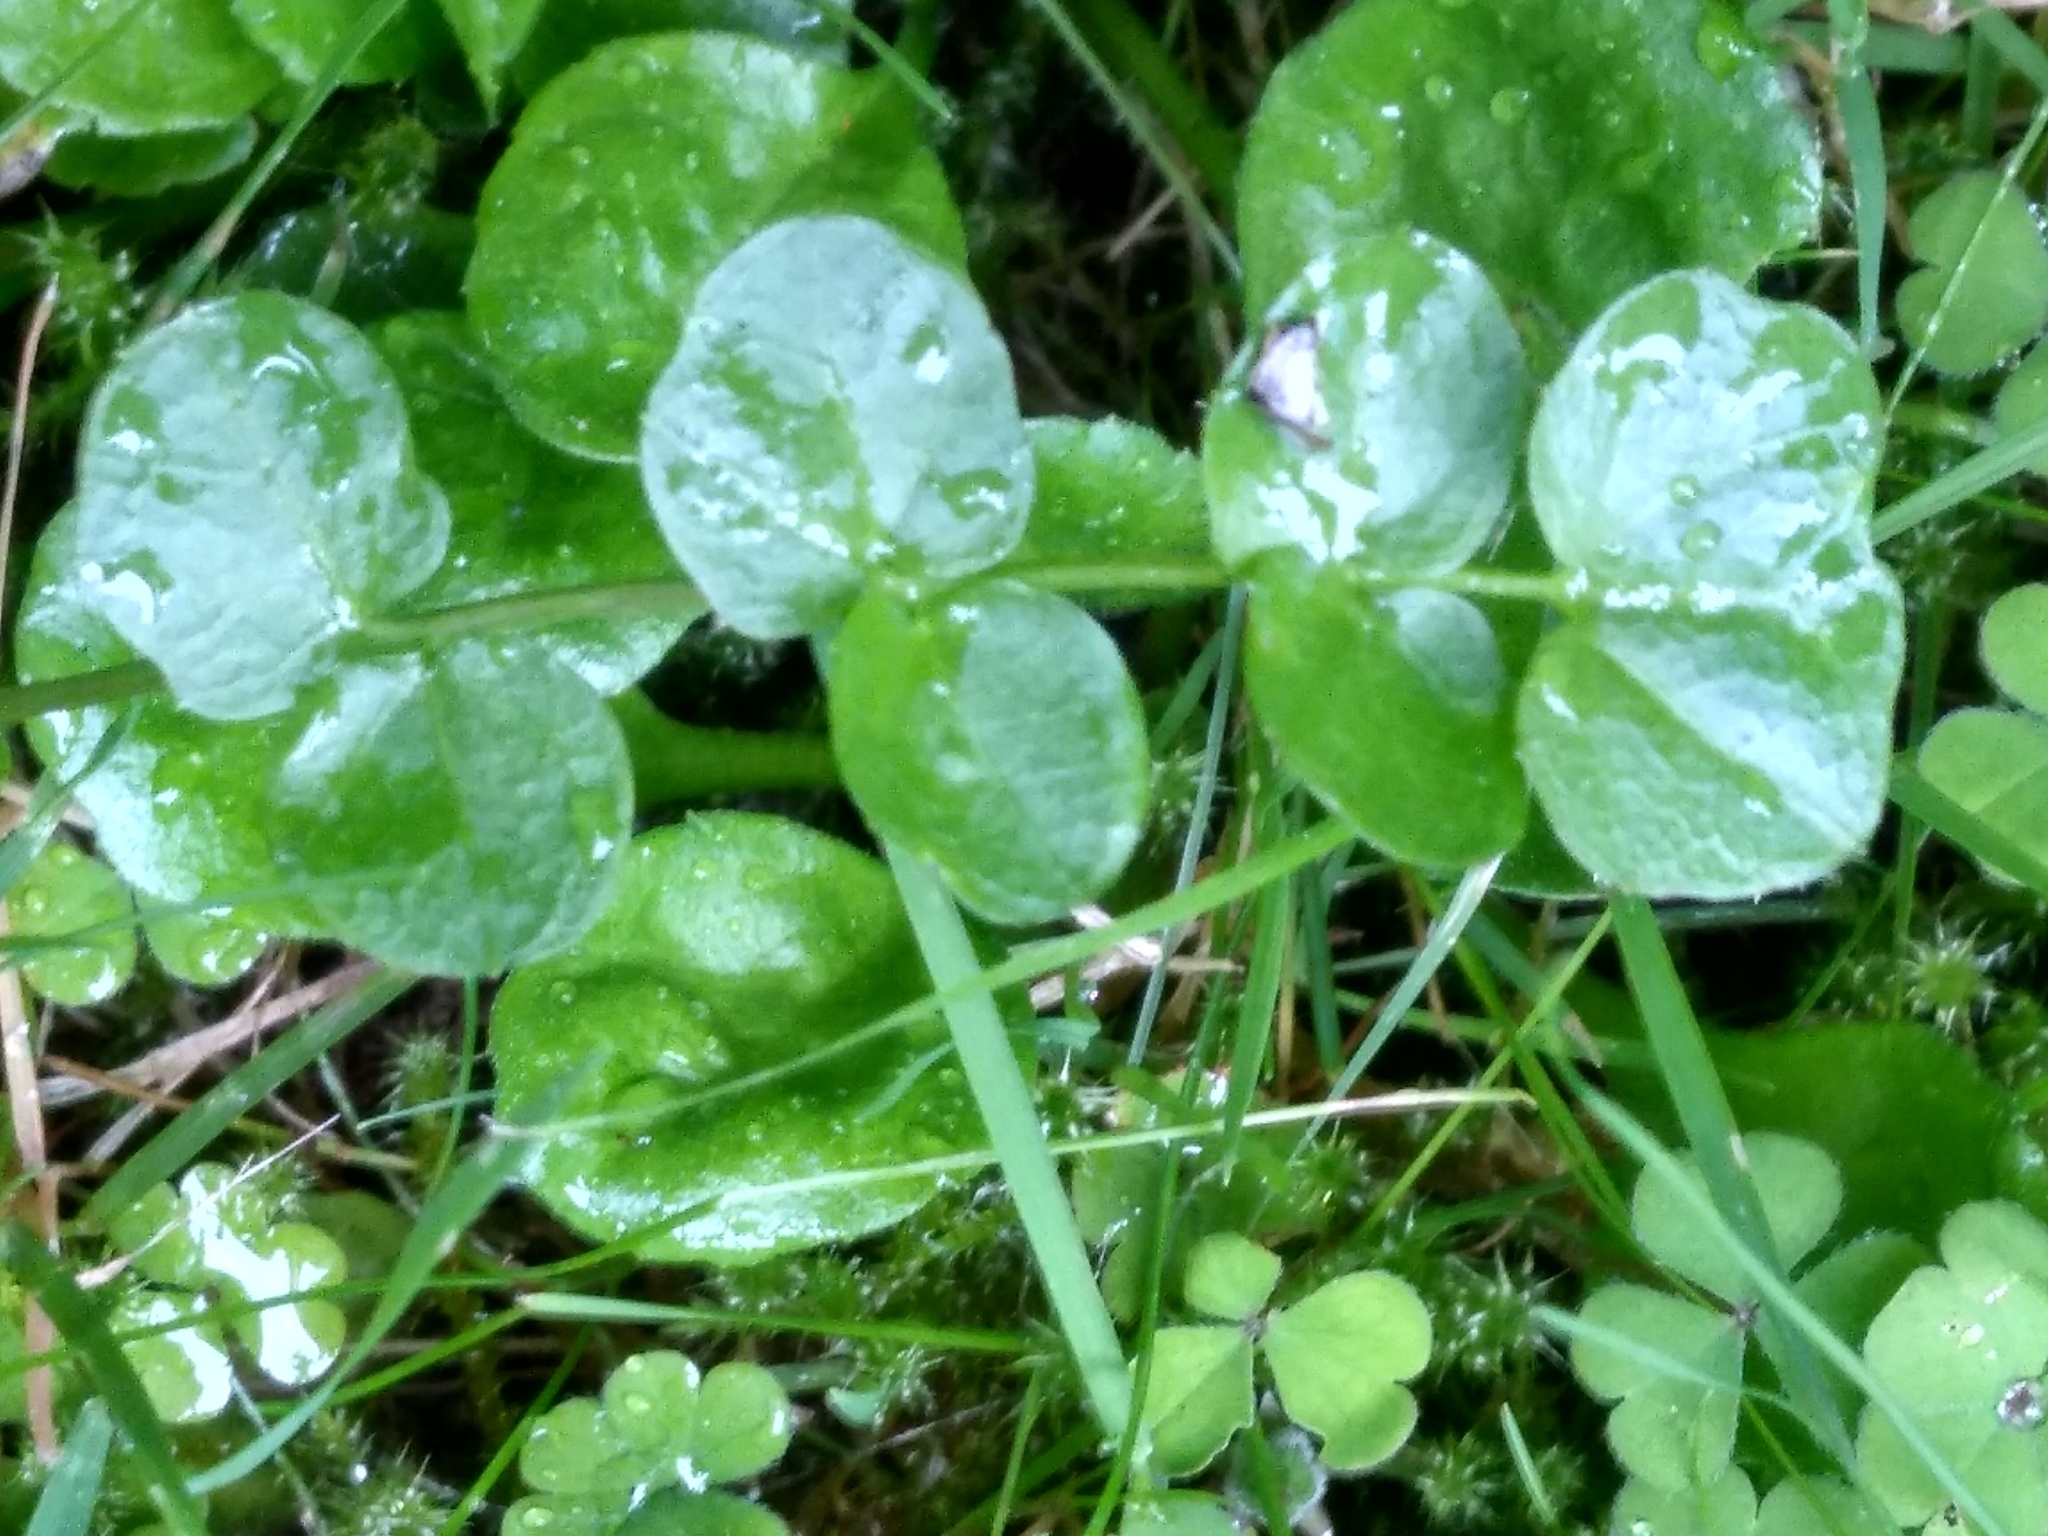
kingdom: Plantae
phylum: Tracheophyta
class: Magnoliopsida
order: Ericales
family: Primulaceae
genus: Lysimachia
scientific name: Lysimachia nummularia
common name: Moneywort
